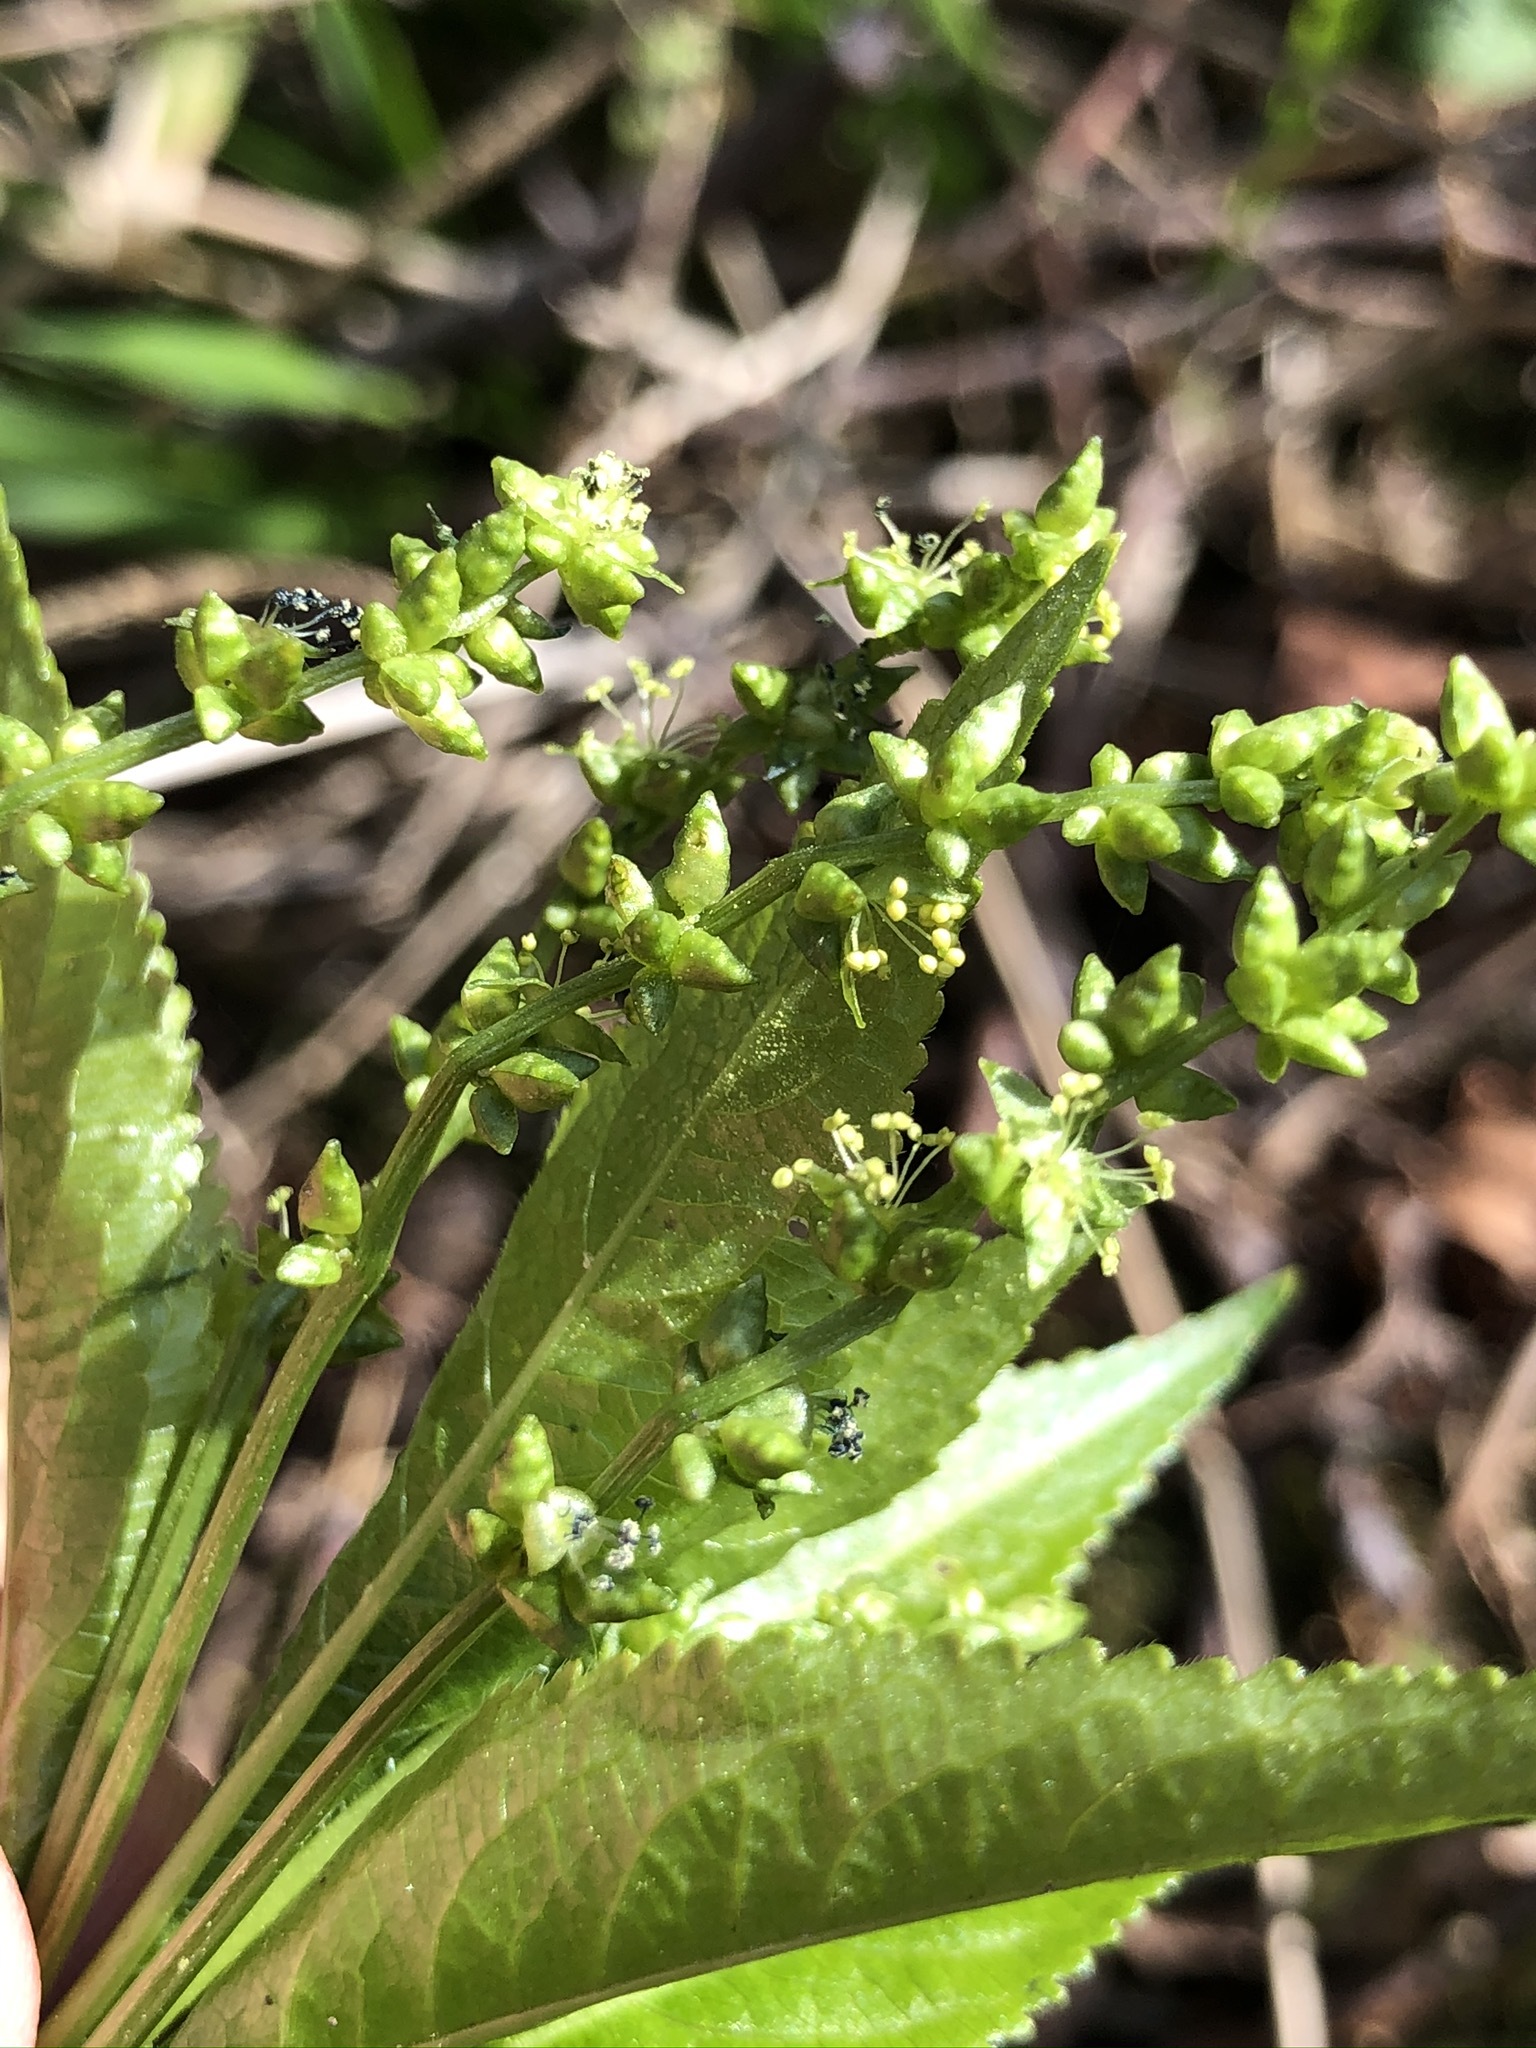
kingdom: Plantae
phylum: Tracheophyta
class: Magnoliopsida
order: Malpighiales
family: Euphorbiaceae
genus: Mercurialis
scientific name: Mercurialis perennis
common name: Dog mercury
